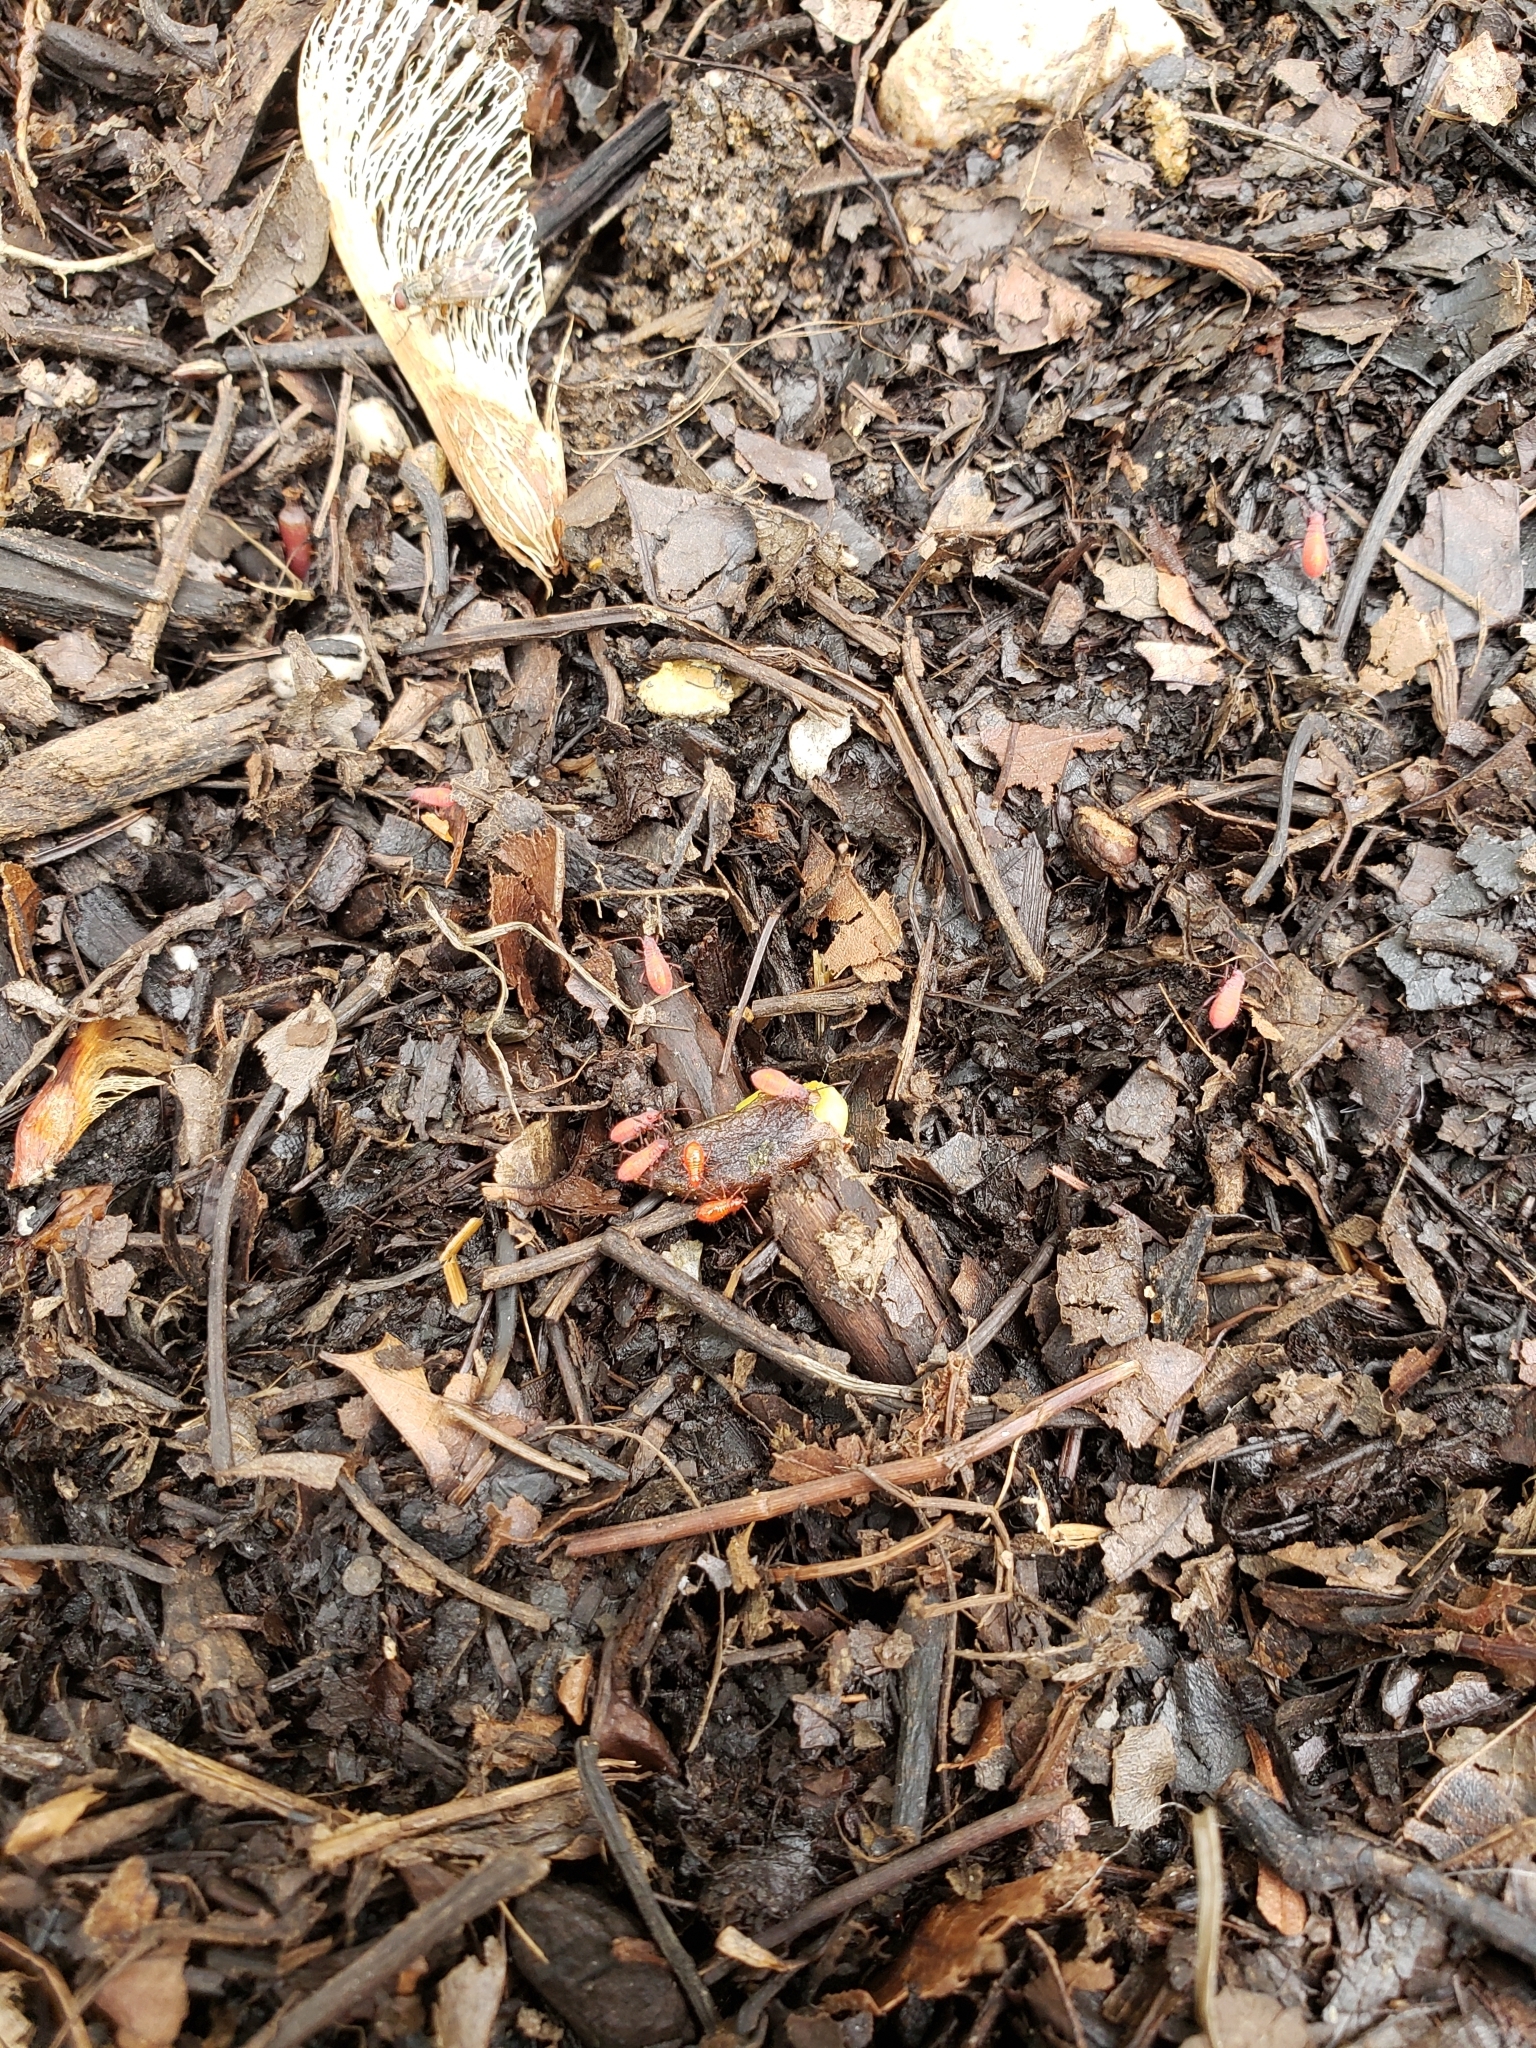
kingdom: Animalia
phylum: Arthropoda
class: Insecta
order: Hemiptera
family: Rhopalidae
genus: Boisea
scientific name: Boisea trivittata
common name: Boxelder bug
